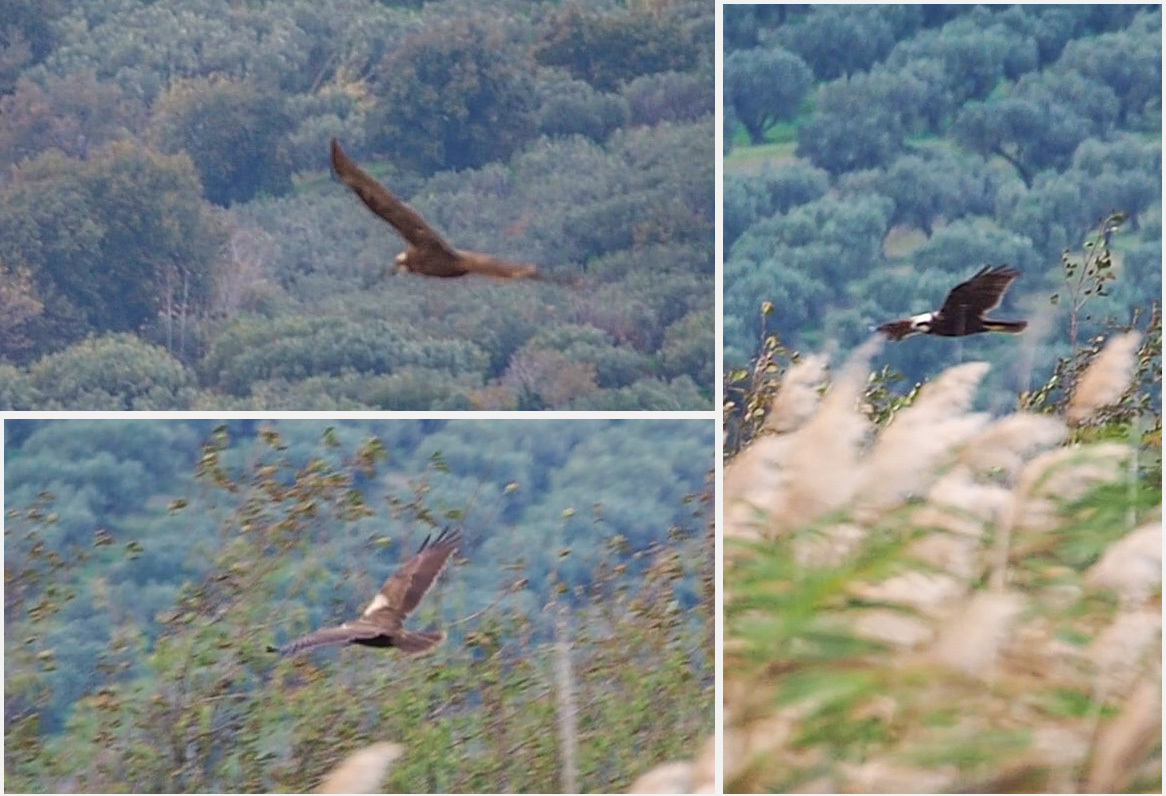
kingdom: Animalia
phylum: Chordata
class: Aves
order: Accipitriformes
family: Accipitridae
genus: Circus
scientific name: Circus aeruginosus
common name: Western marsh harrier
